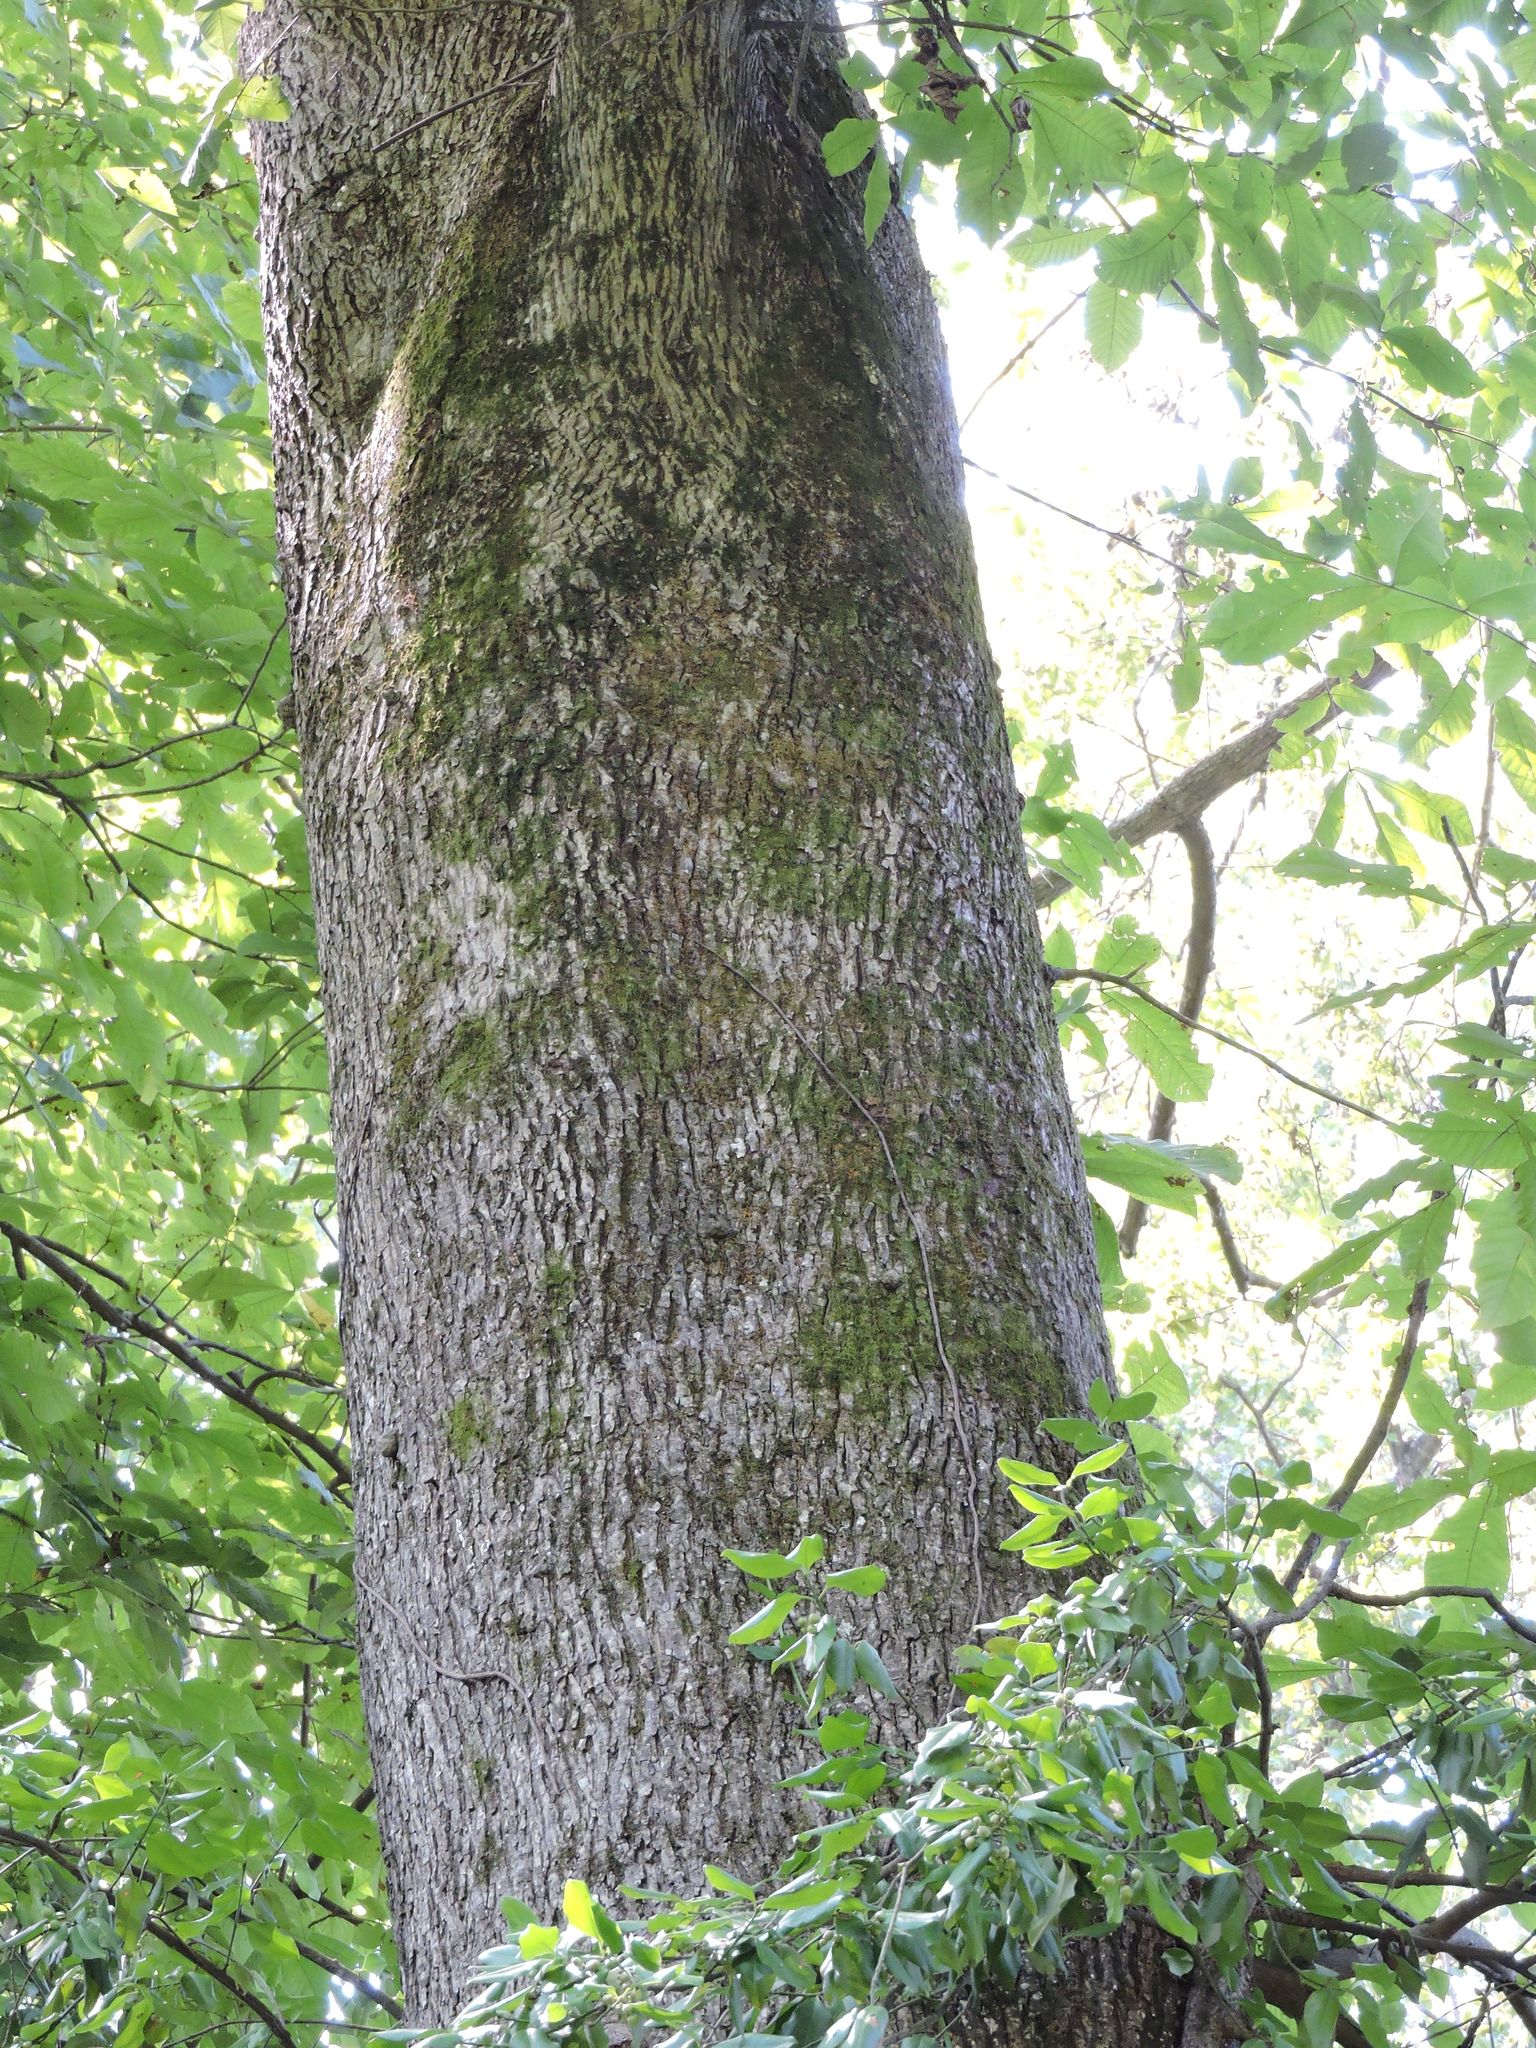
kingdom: Plantae
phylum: Tracheophyta
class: Magnoliopsida
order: Fagales
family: Juglandaceae
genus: Carya
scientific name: Carya cordiformis
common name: Bitternut hickory
